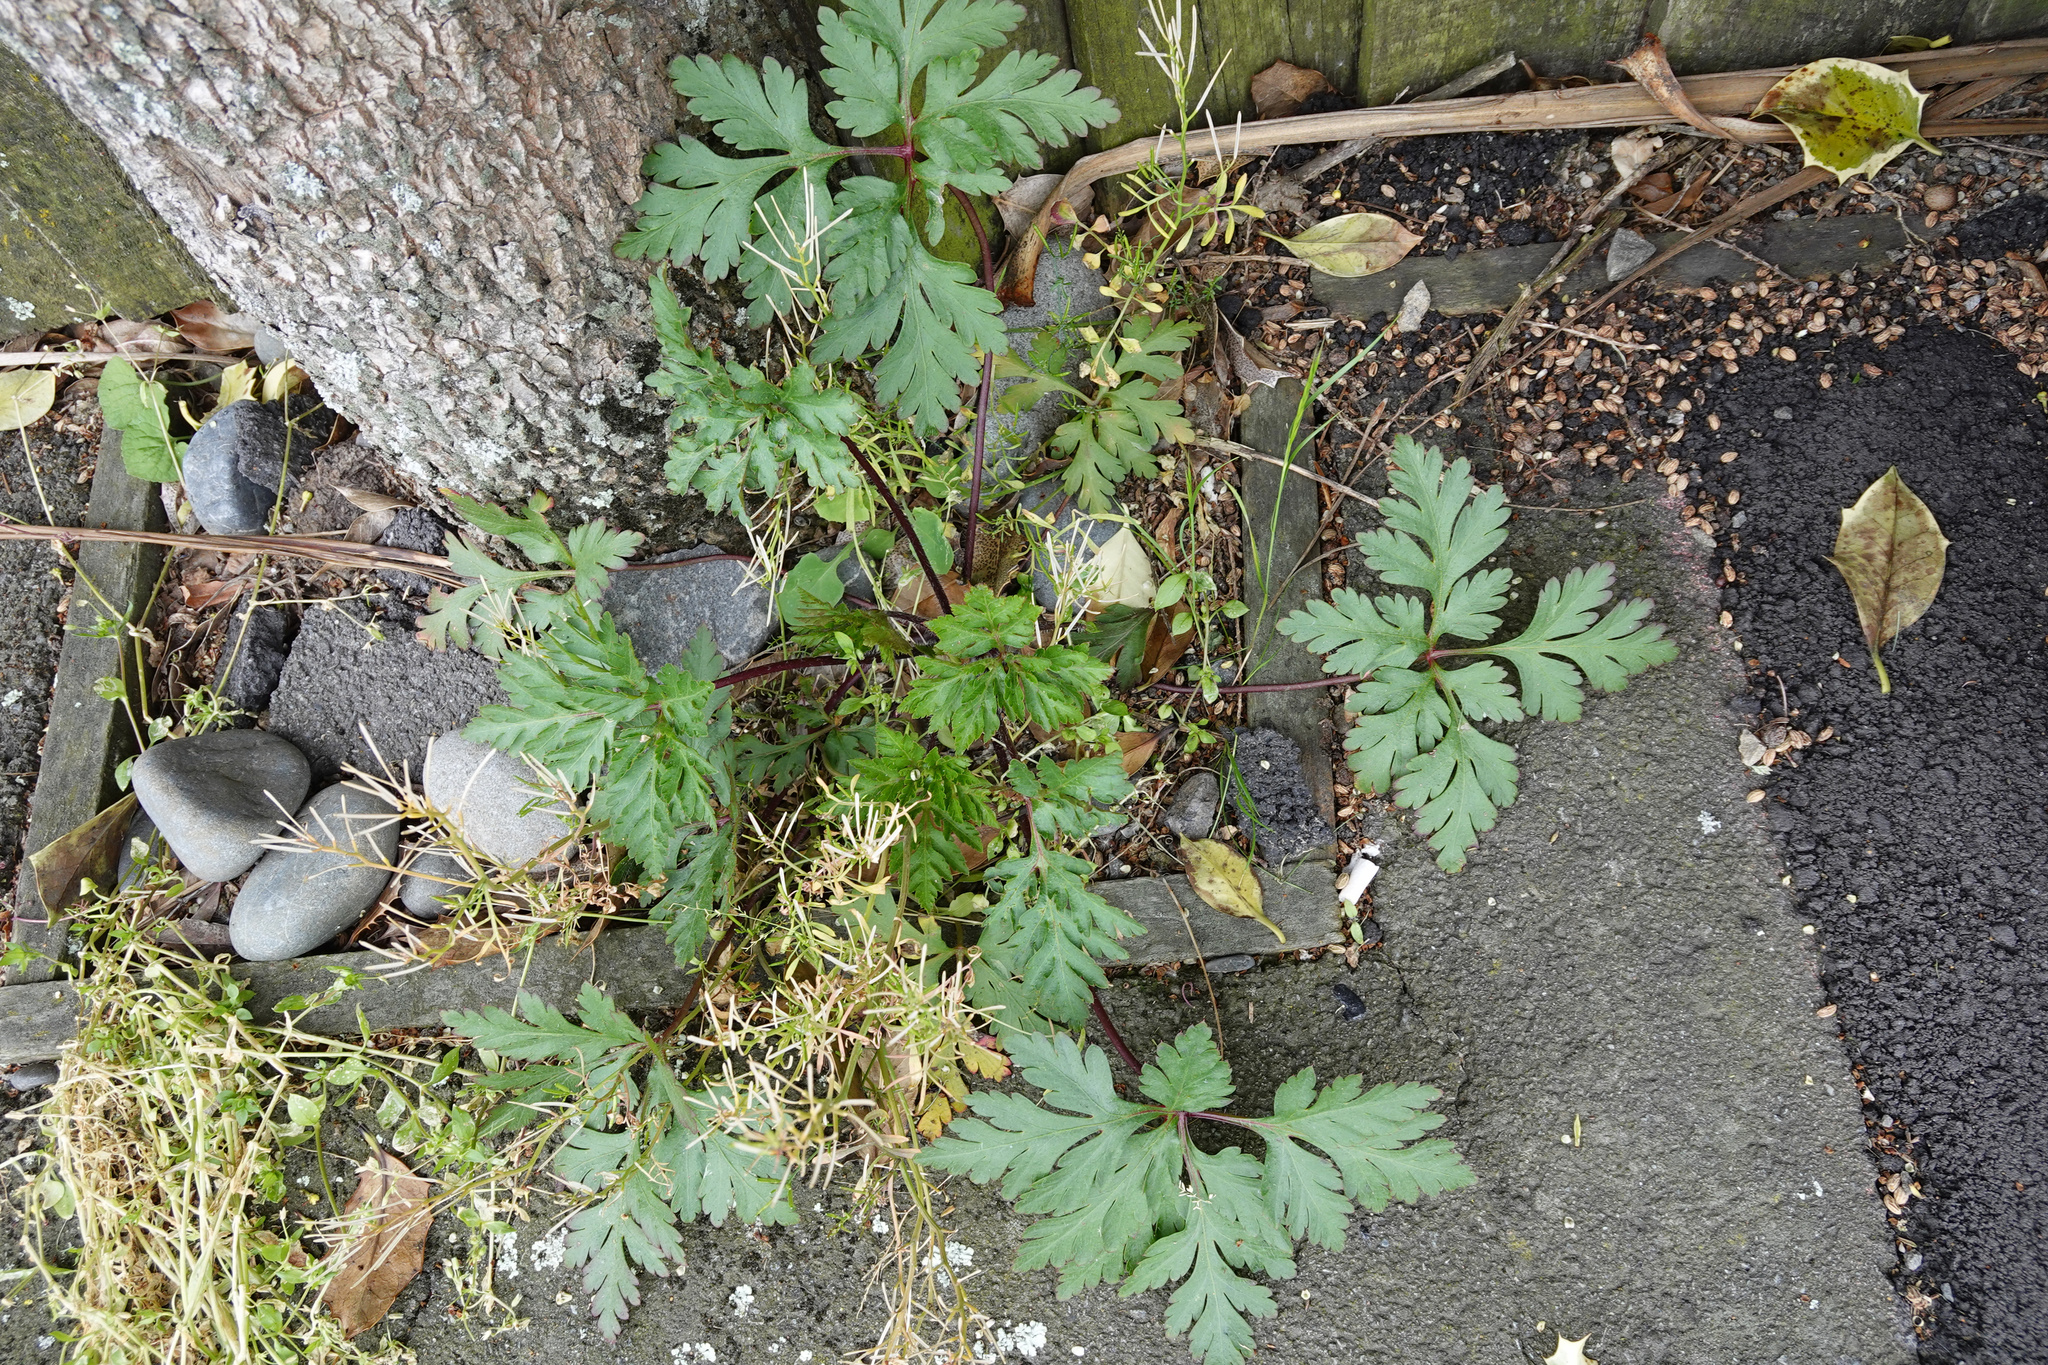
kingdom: Plantae
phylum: Tracheophyta
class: Magnoliopsida
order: Geraniales
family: Geraniaceae
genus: Geranium
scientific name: Geranium yeoi
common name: Greater herb robert
